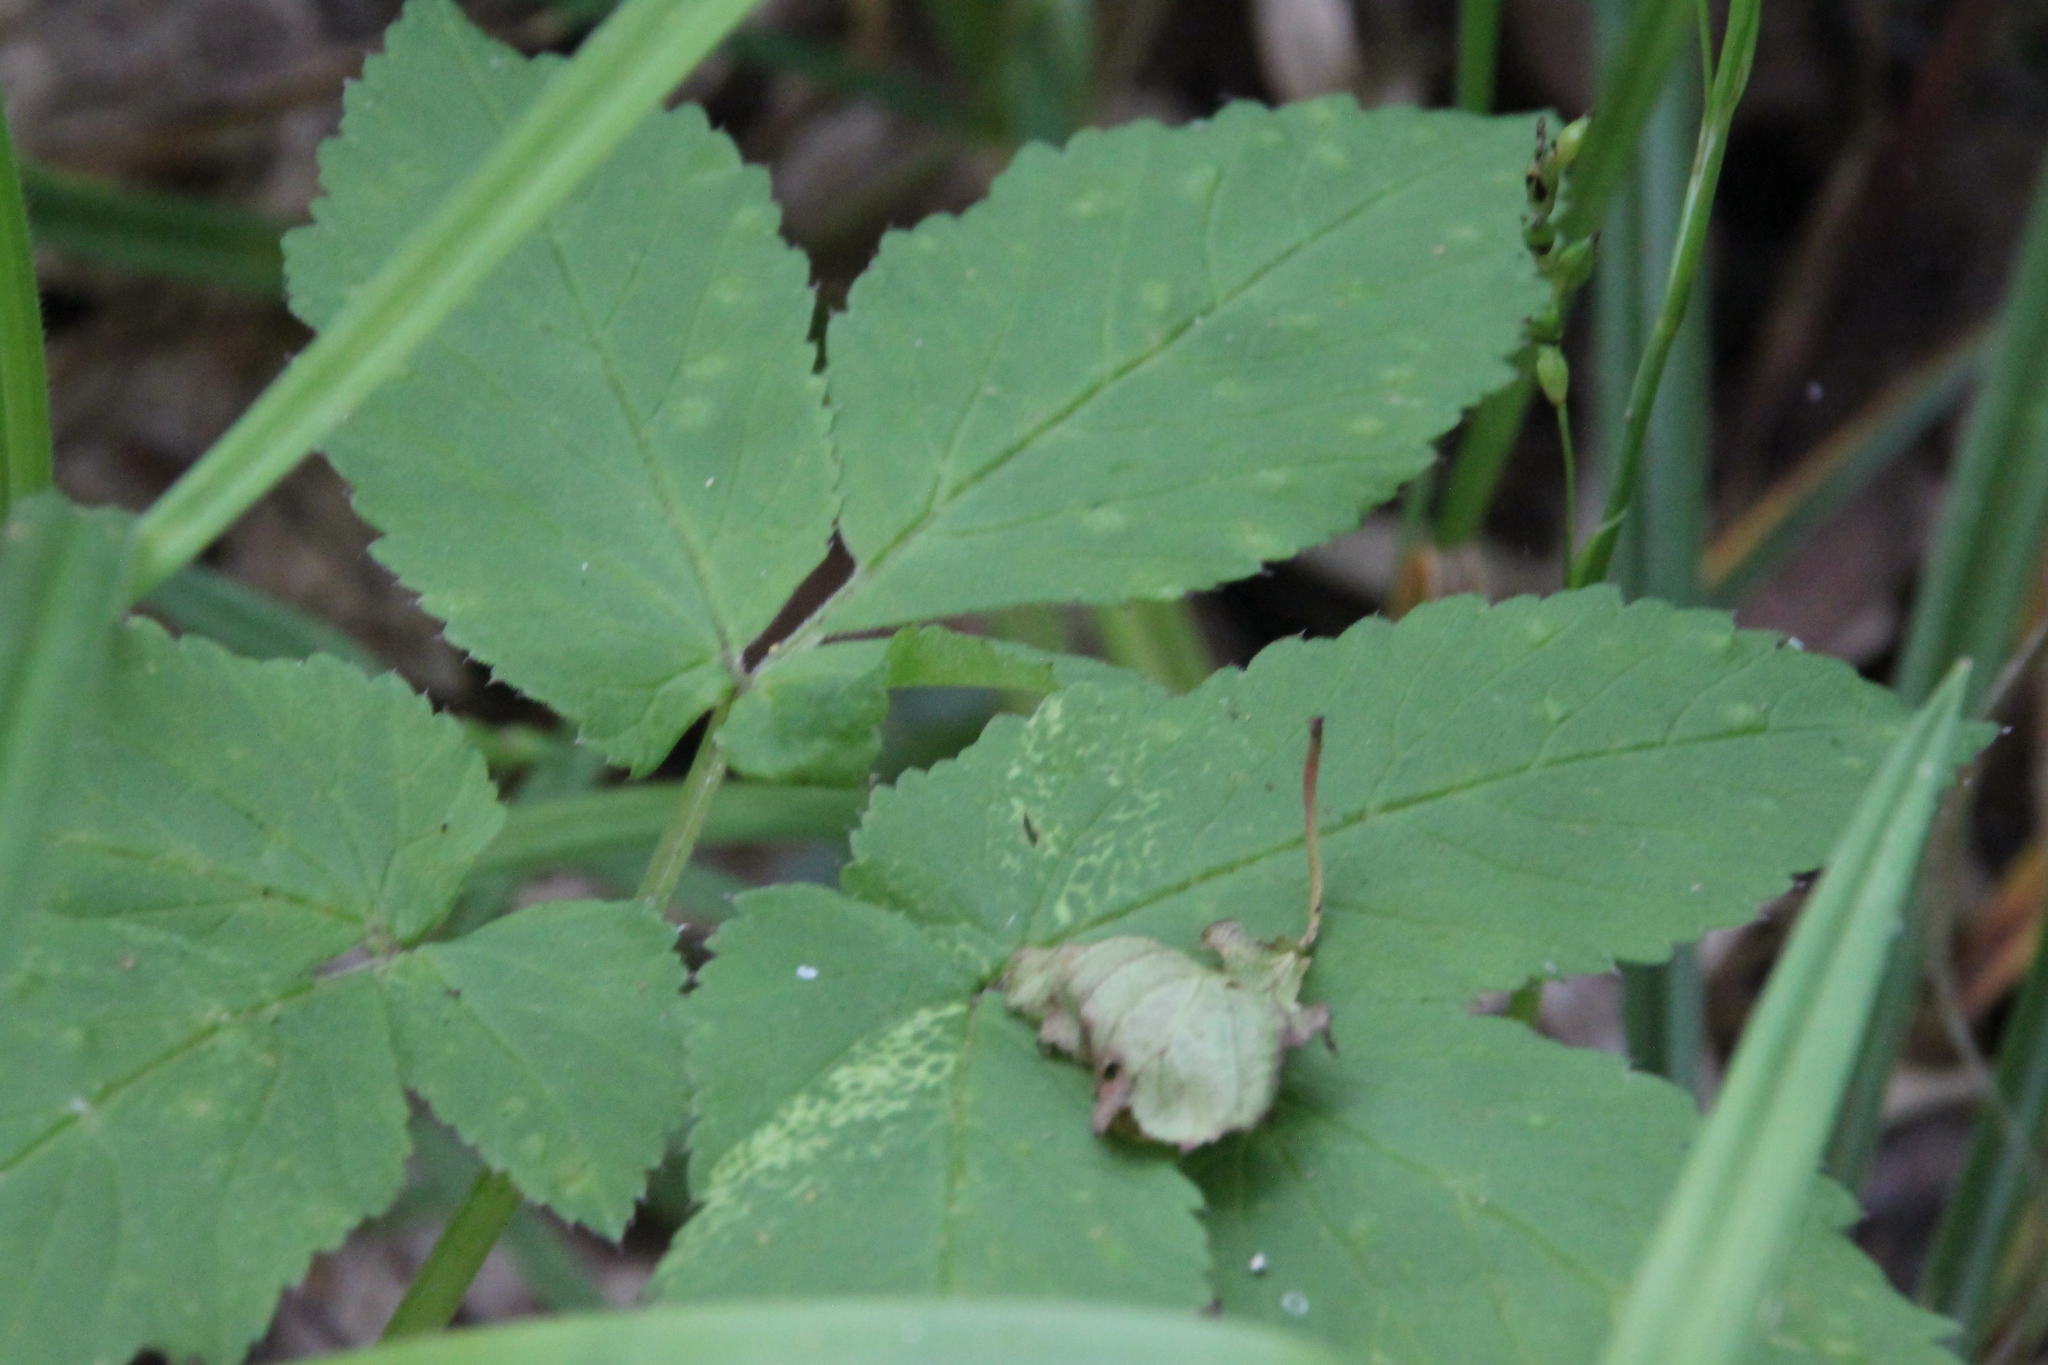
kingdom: Plantae
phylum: Tracheophyta
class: Magnoliopsida
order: Apiales
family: Apiaceae
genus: Aegopodium
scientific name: Aegopodium podagraria
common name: Ground-elder
